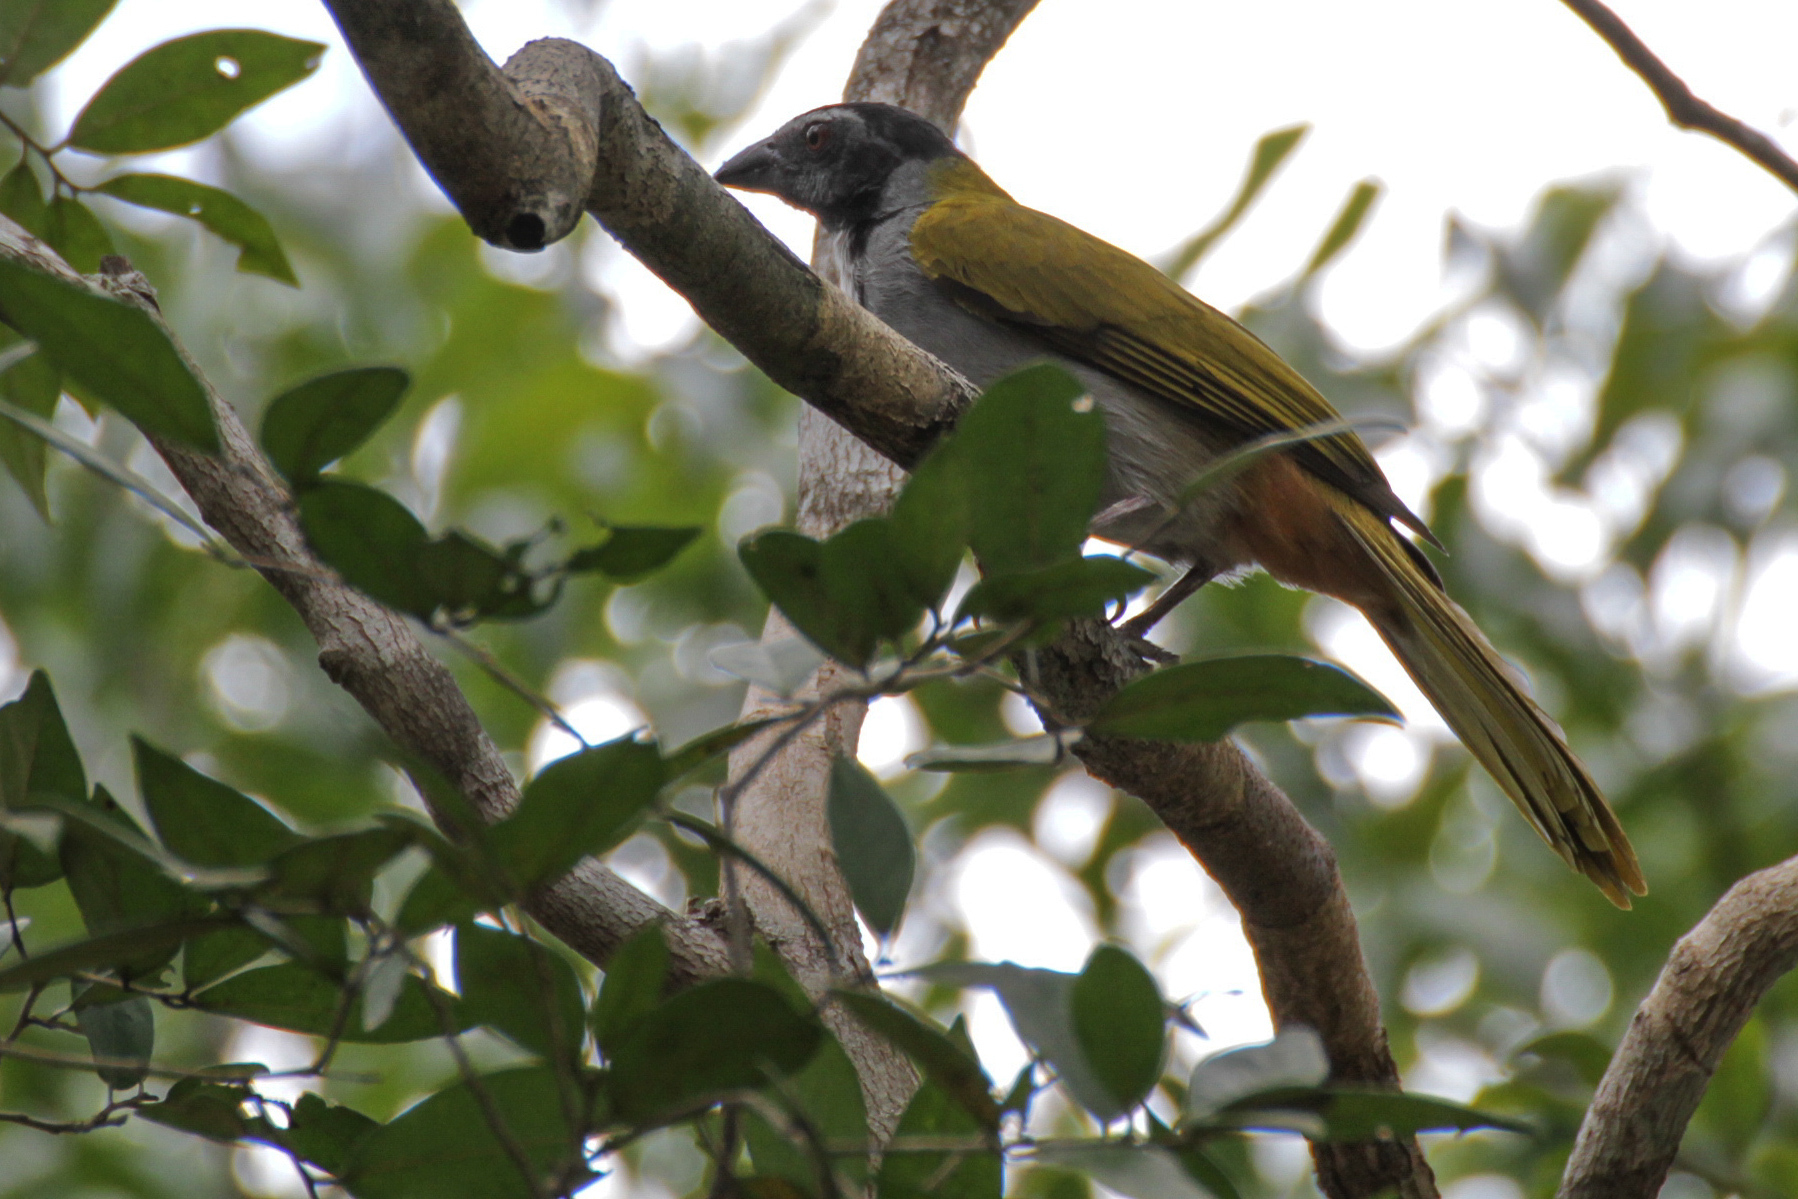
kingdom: Animalia
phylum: Chordata
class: Aves
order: Passeriformes
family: Thraupidae
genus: Saltator
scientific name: Saltator atriceps
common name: Black-headed saltator
